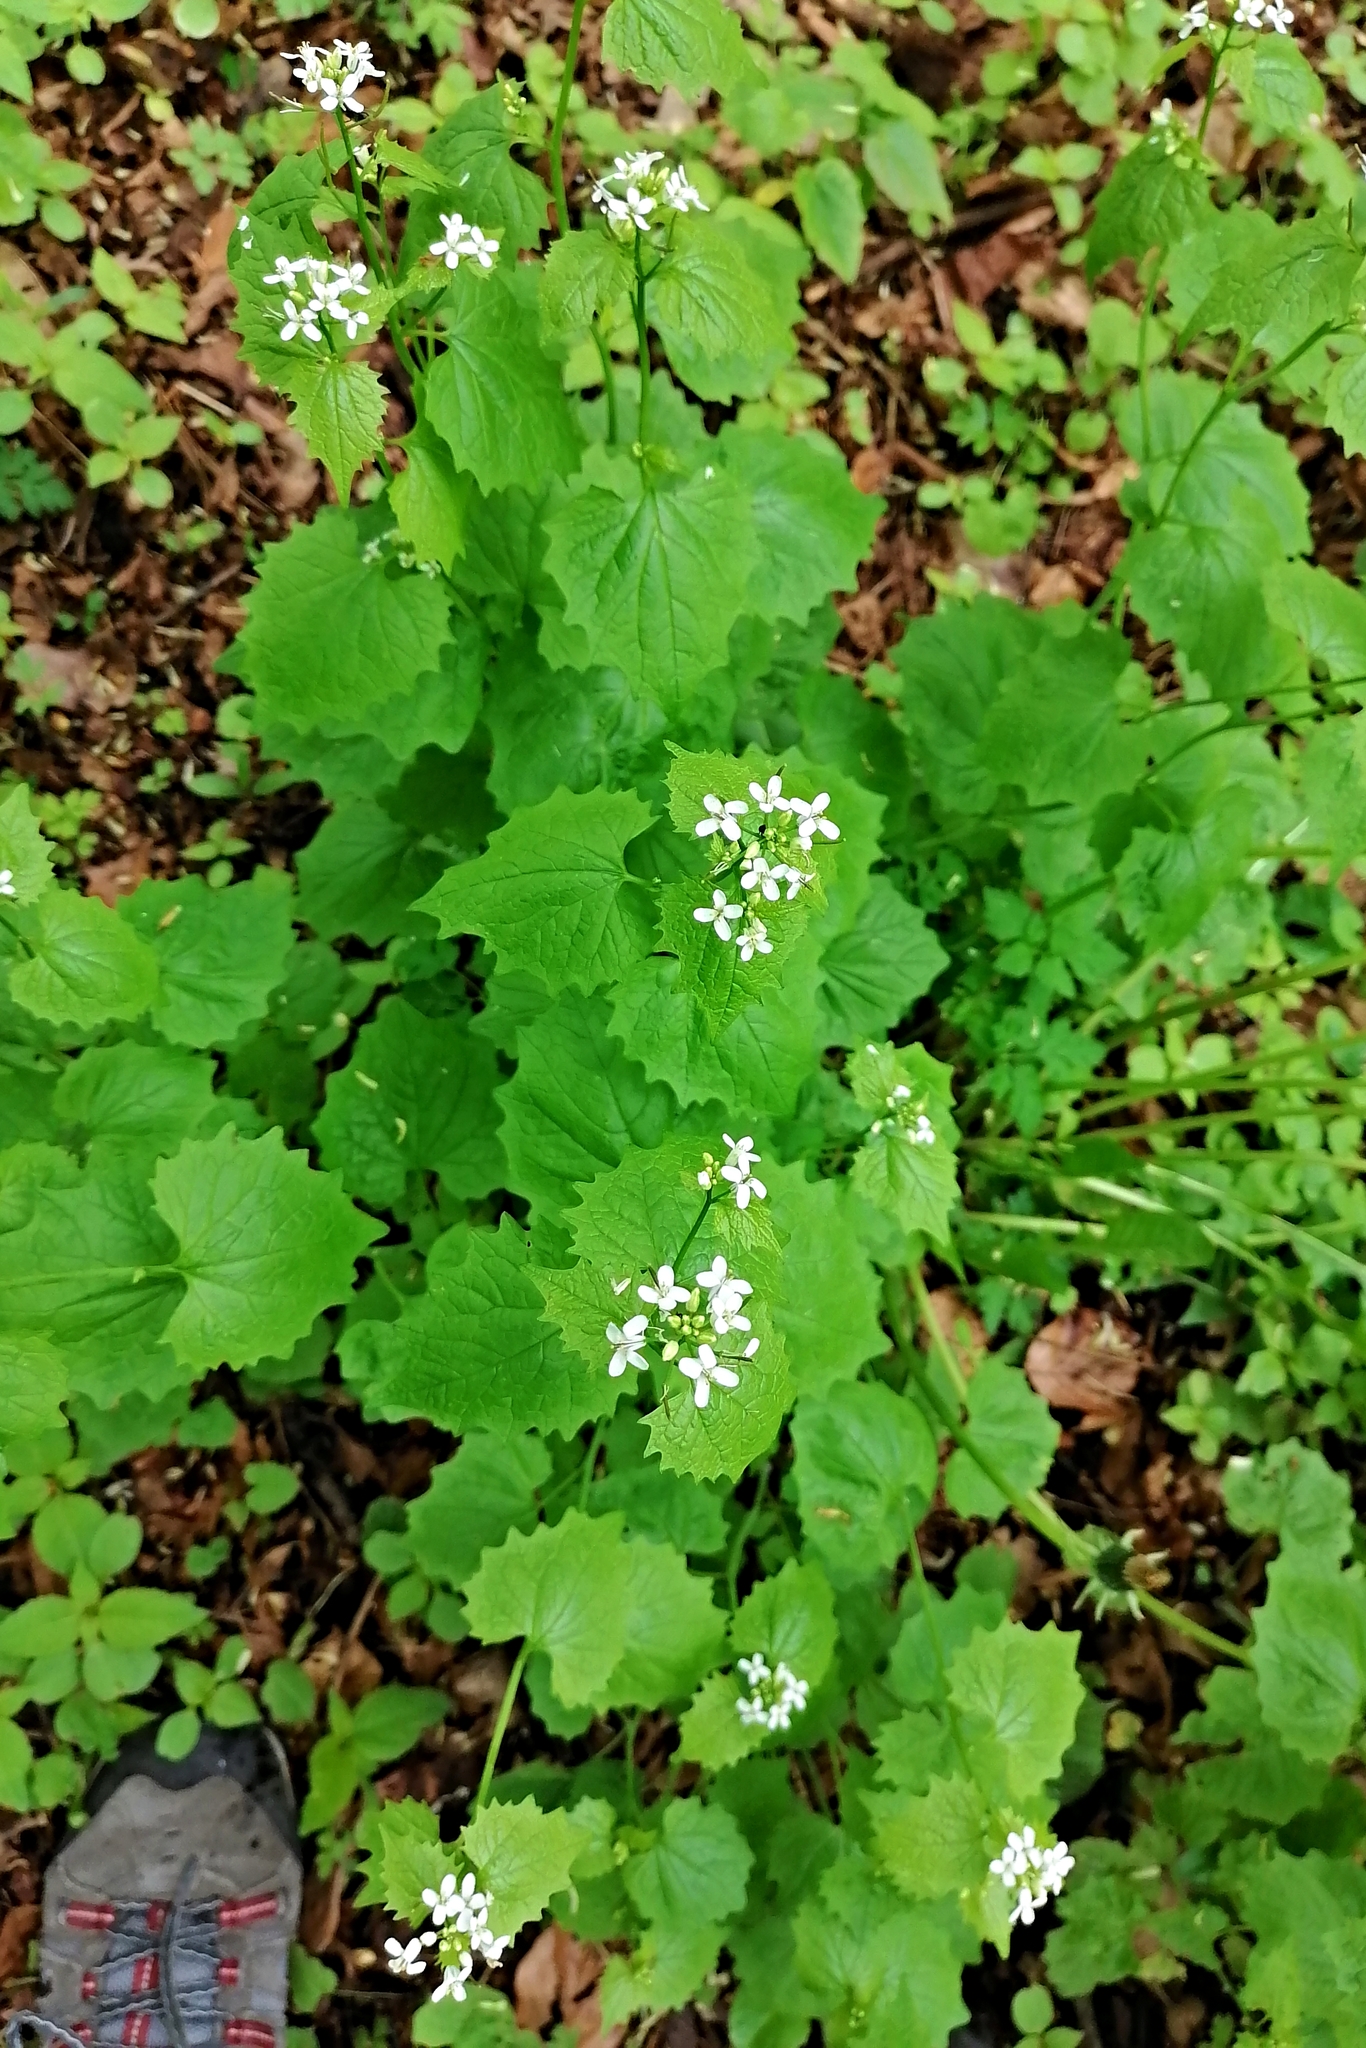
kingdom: Plantae
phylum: Tracheophyta
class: Magnoliopsida
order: Brassicales
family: Brassicaceae
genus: Alliaria
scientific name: Alliaria petiolata
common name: Garlic mustard
